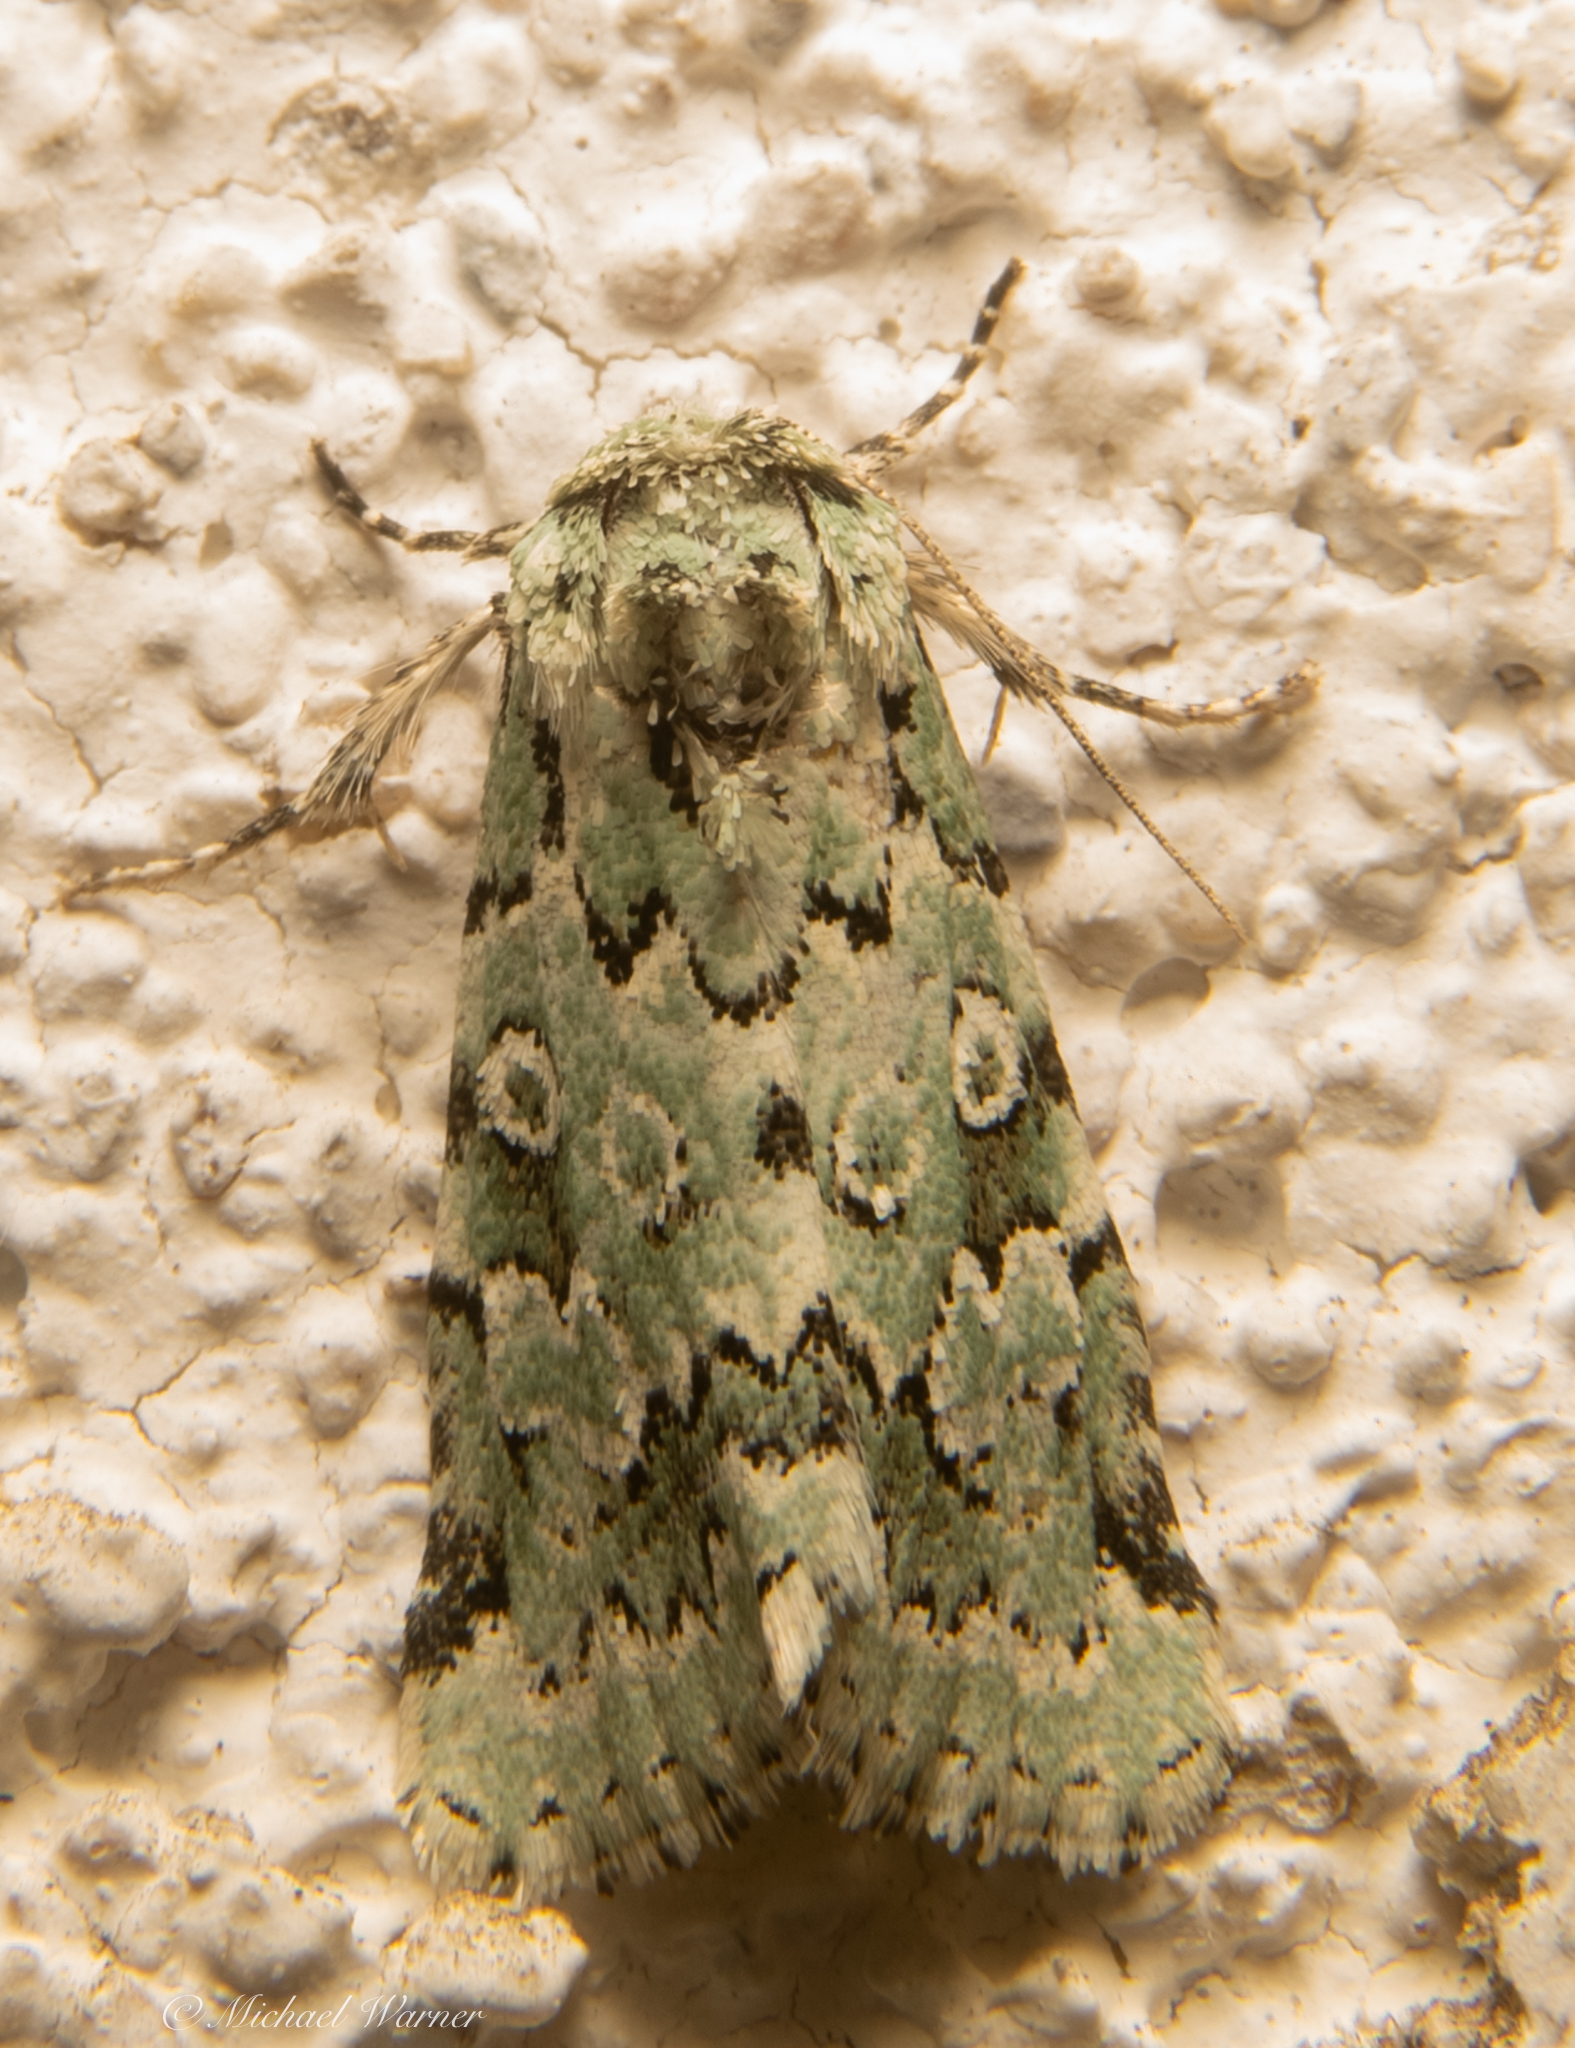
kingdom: Animalia
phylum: Arthropoda
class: Insecta
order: Lepidoptera
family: Noctuidae
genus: Bryolymnia
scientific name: Bryolymnia viridata
